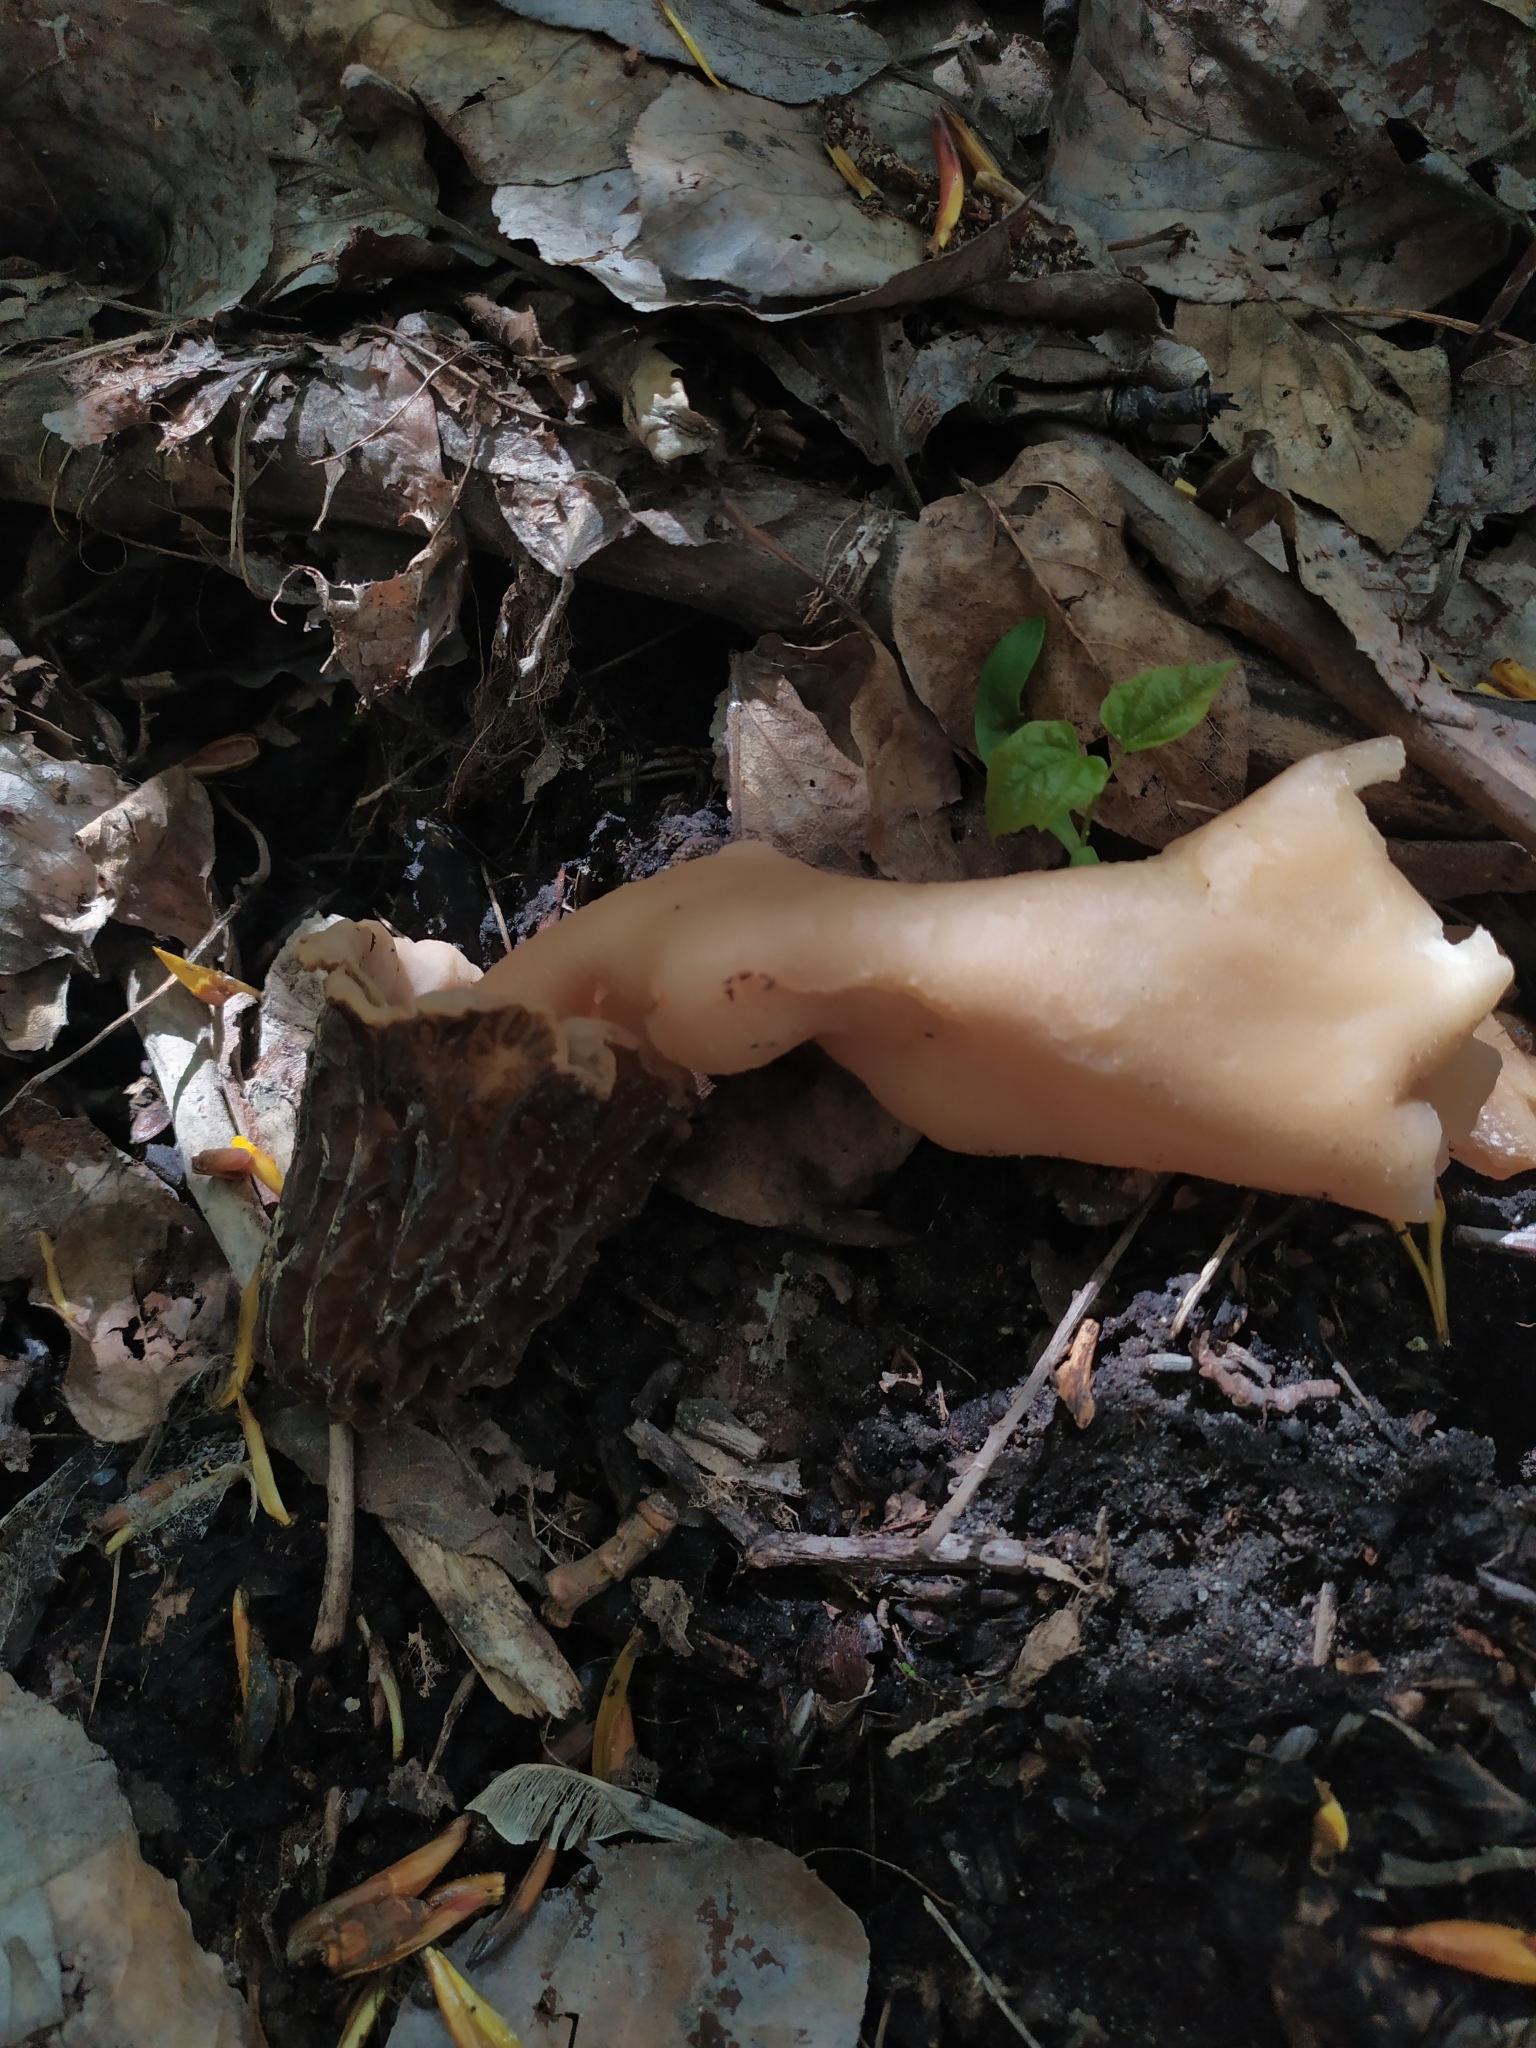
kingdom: Fungi
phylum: Ascomycota
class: Pezizomycetes
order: Pezizales
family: Morchellaceae
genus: Verpa
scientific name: Verpa bohemica
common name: Wrinkled thimble morel
